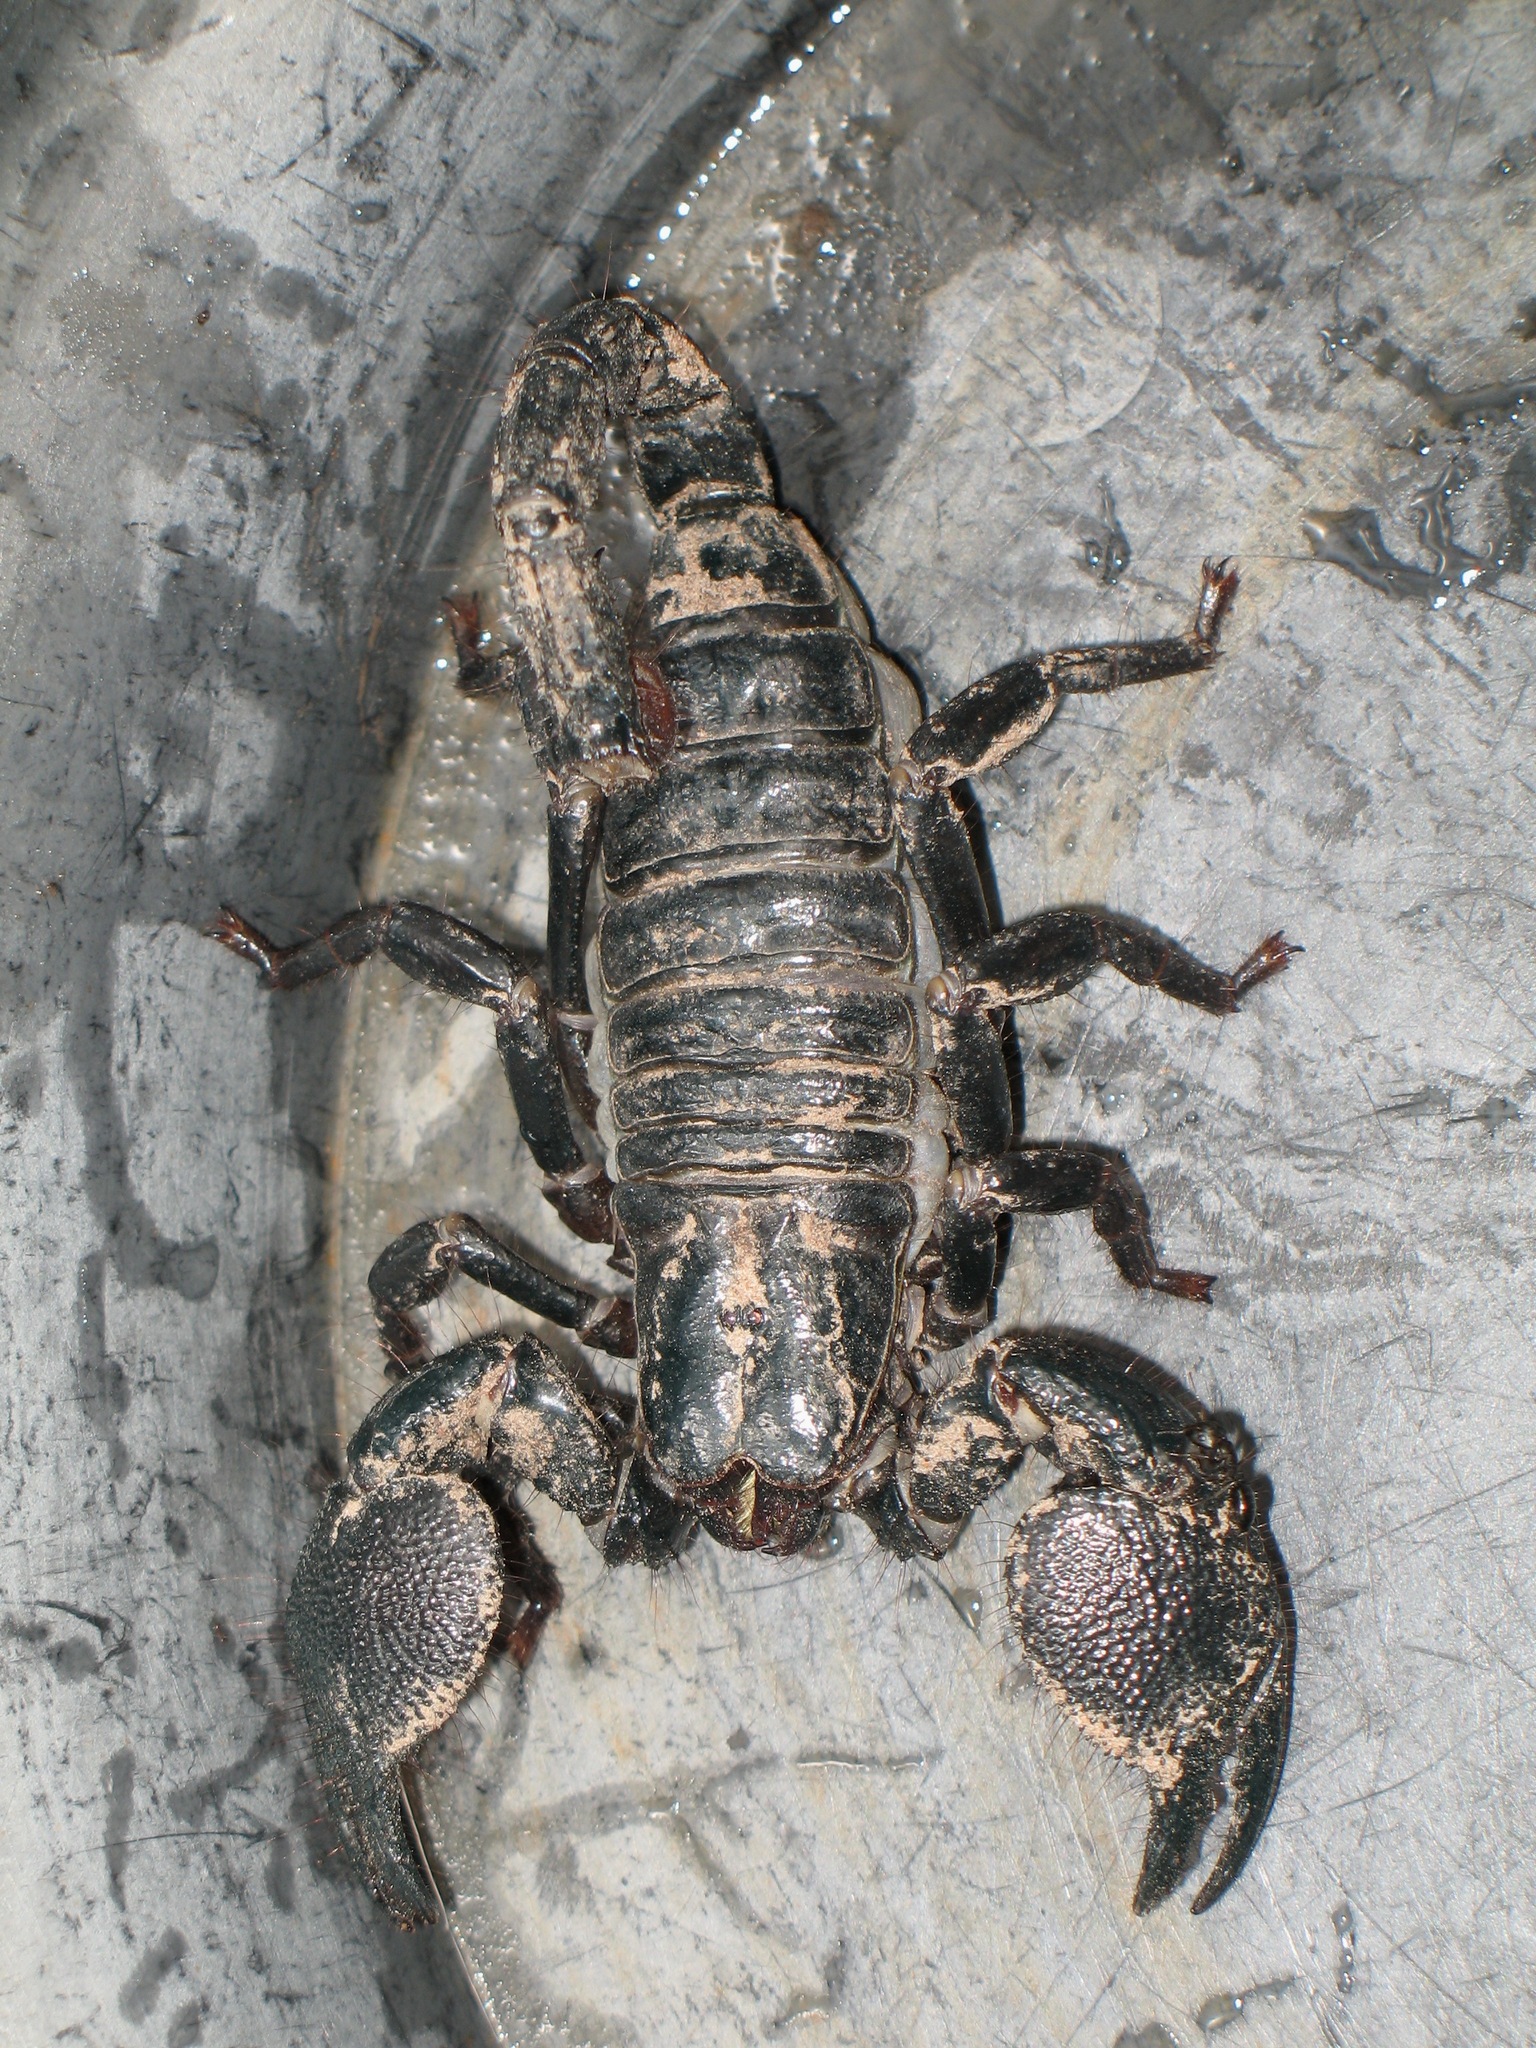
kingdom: Animalia
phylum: Arthropoda
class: Arachnida
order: Scorpiones
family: Scorpionidae
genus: Pandinus
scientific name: Pandinus imperator
